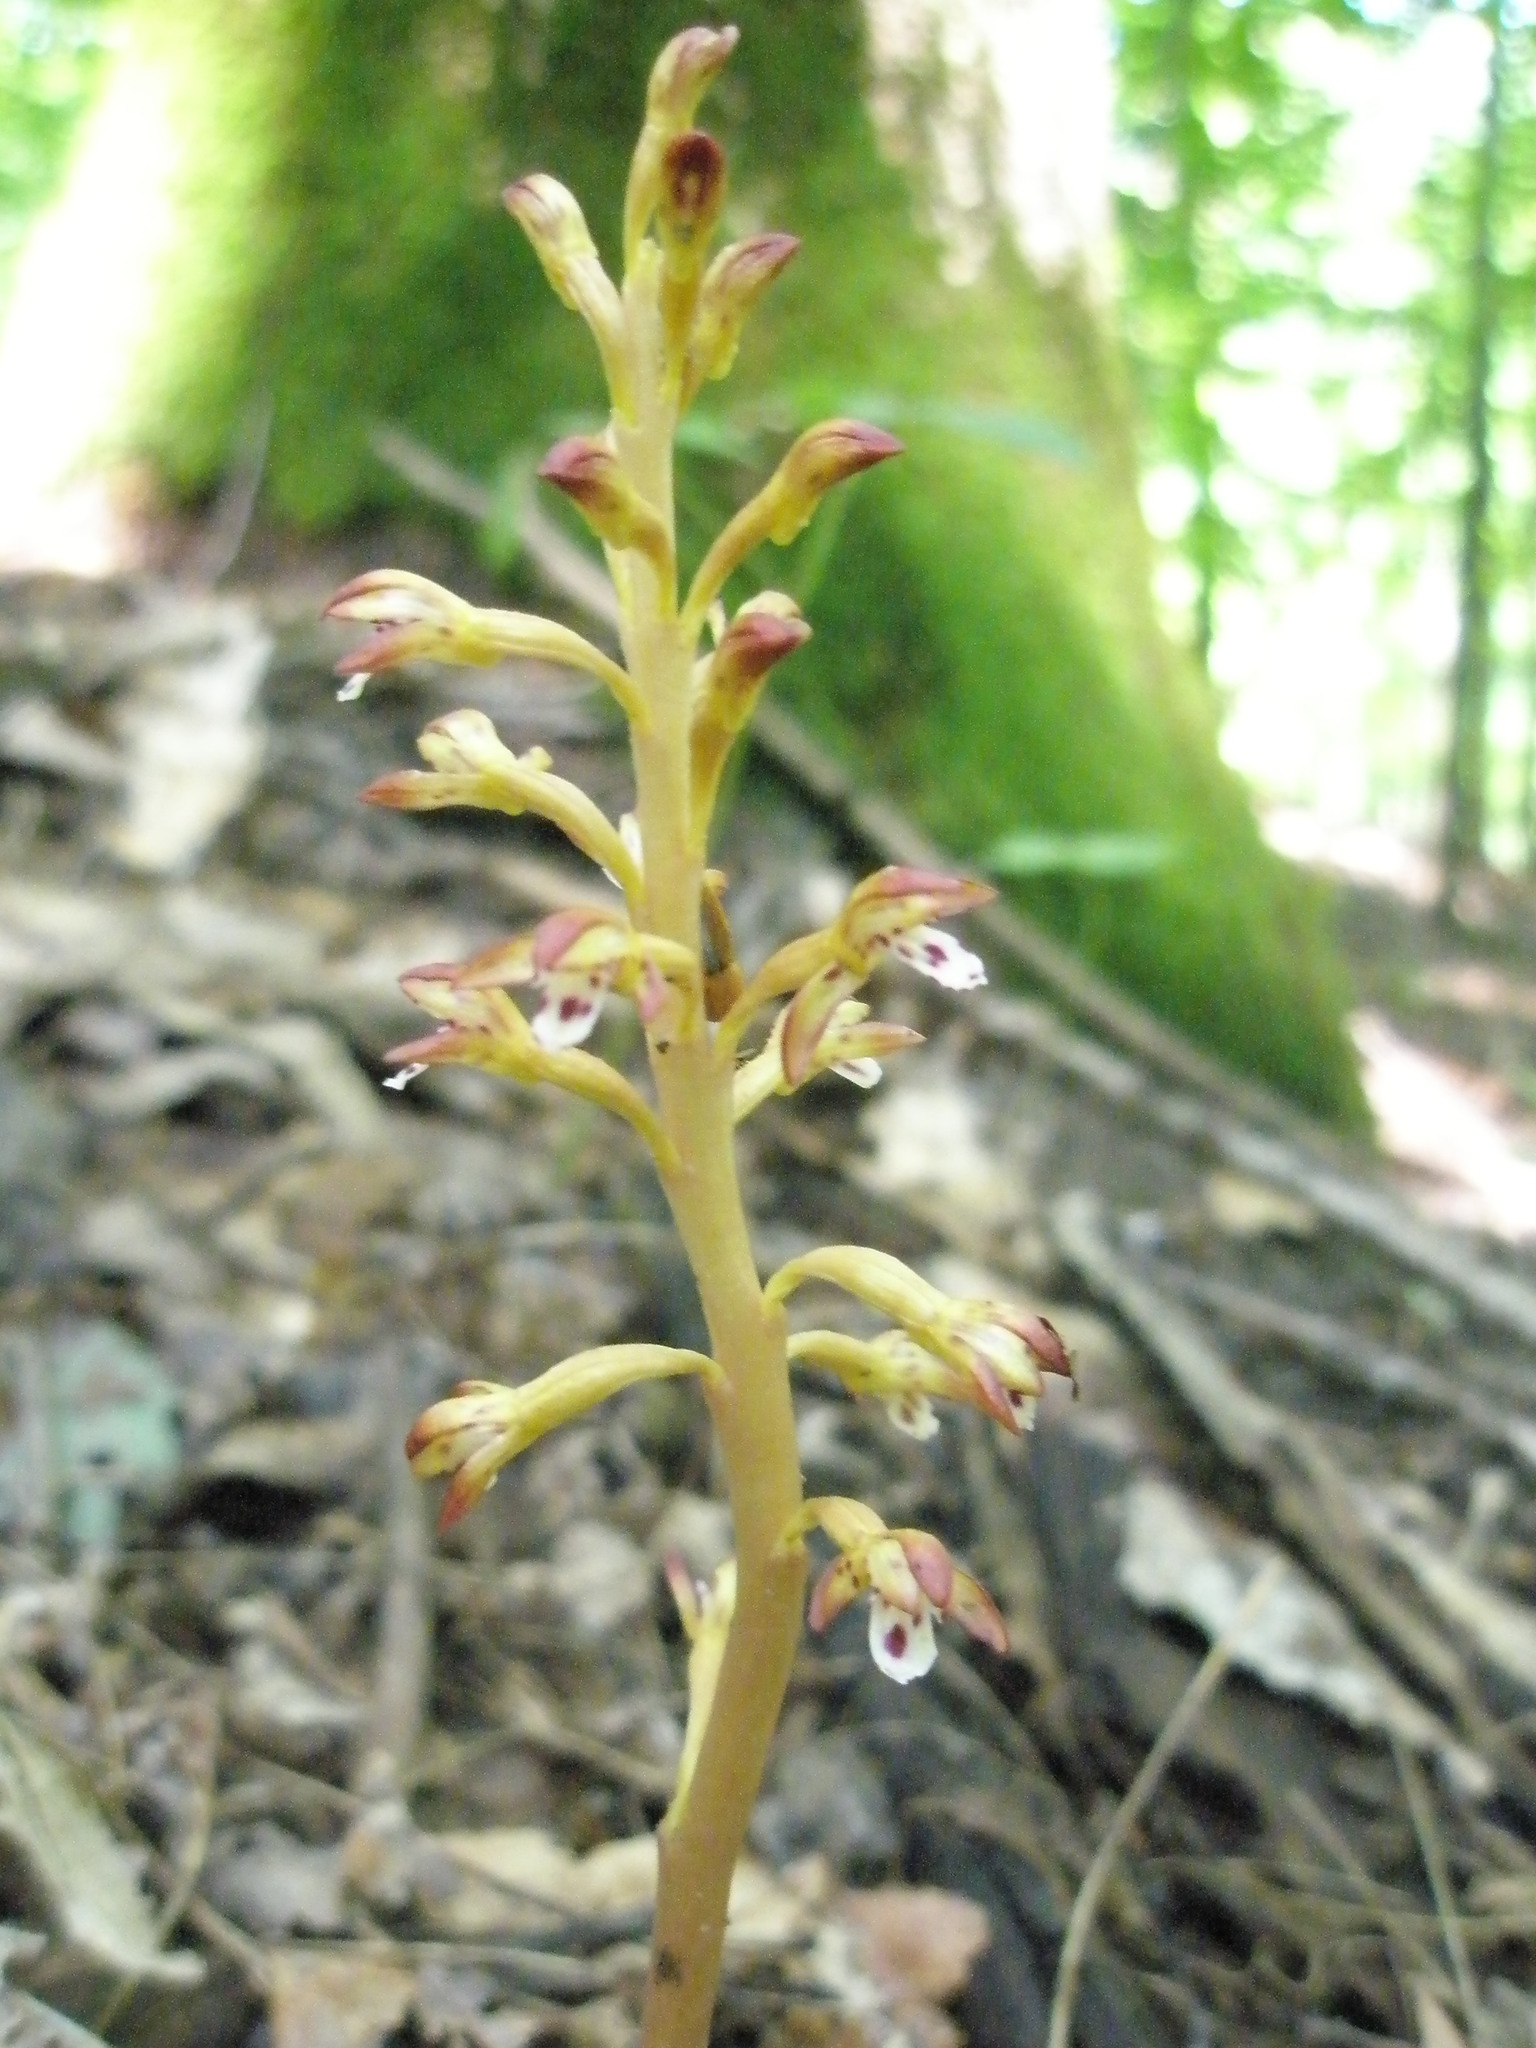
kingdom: Plantae
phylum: Tracheophyta
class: Liliopsida
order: Asparagales
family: Orchidaceae
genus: Corallorhiza
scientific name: Corallorhiza maculata
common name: Spotted coralroot
